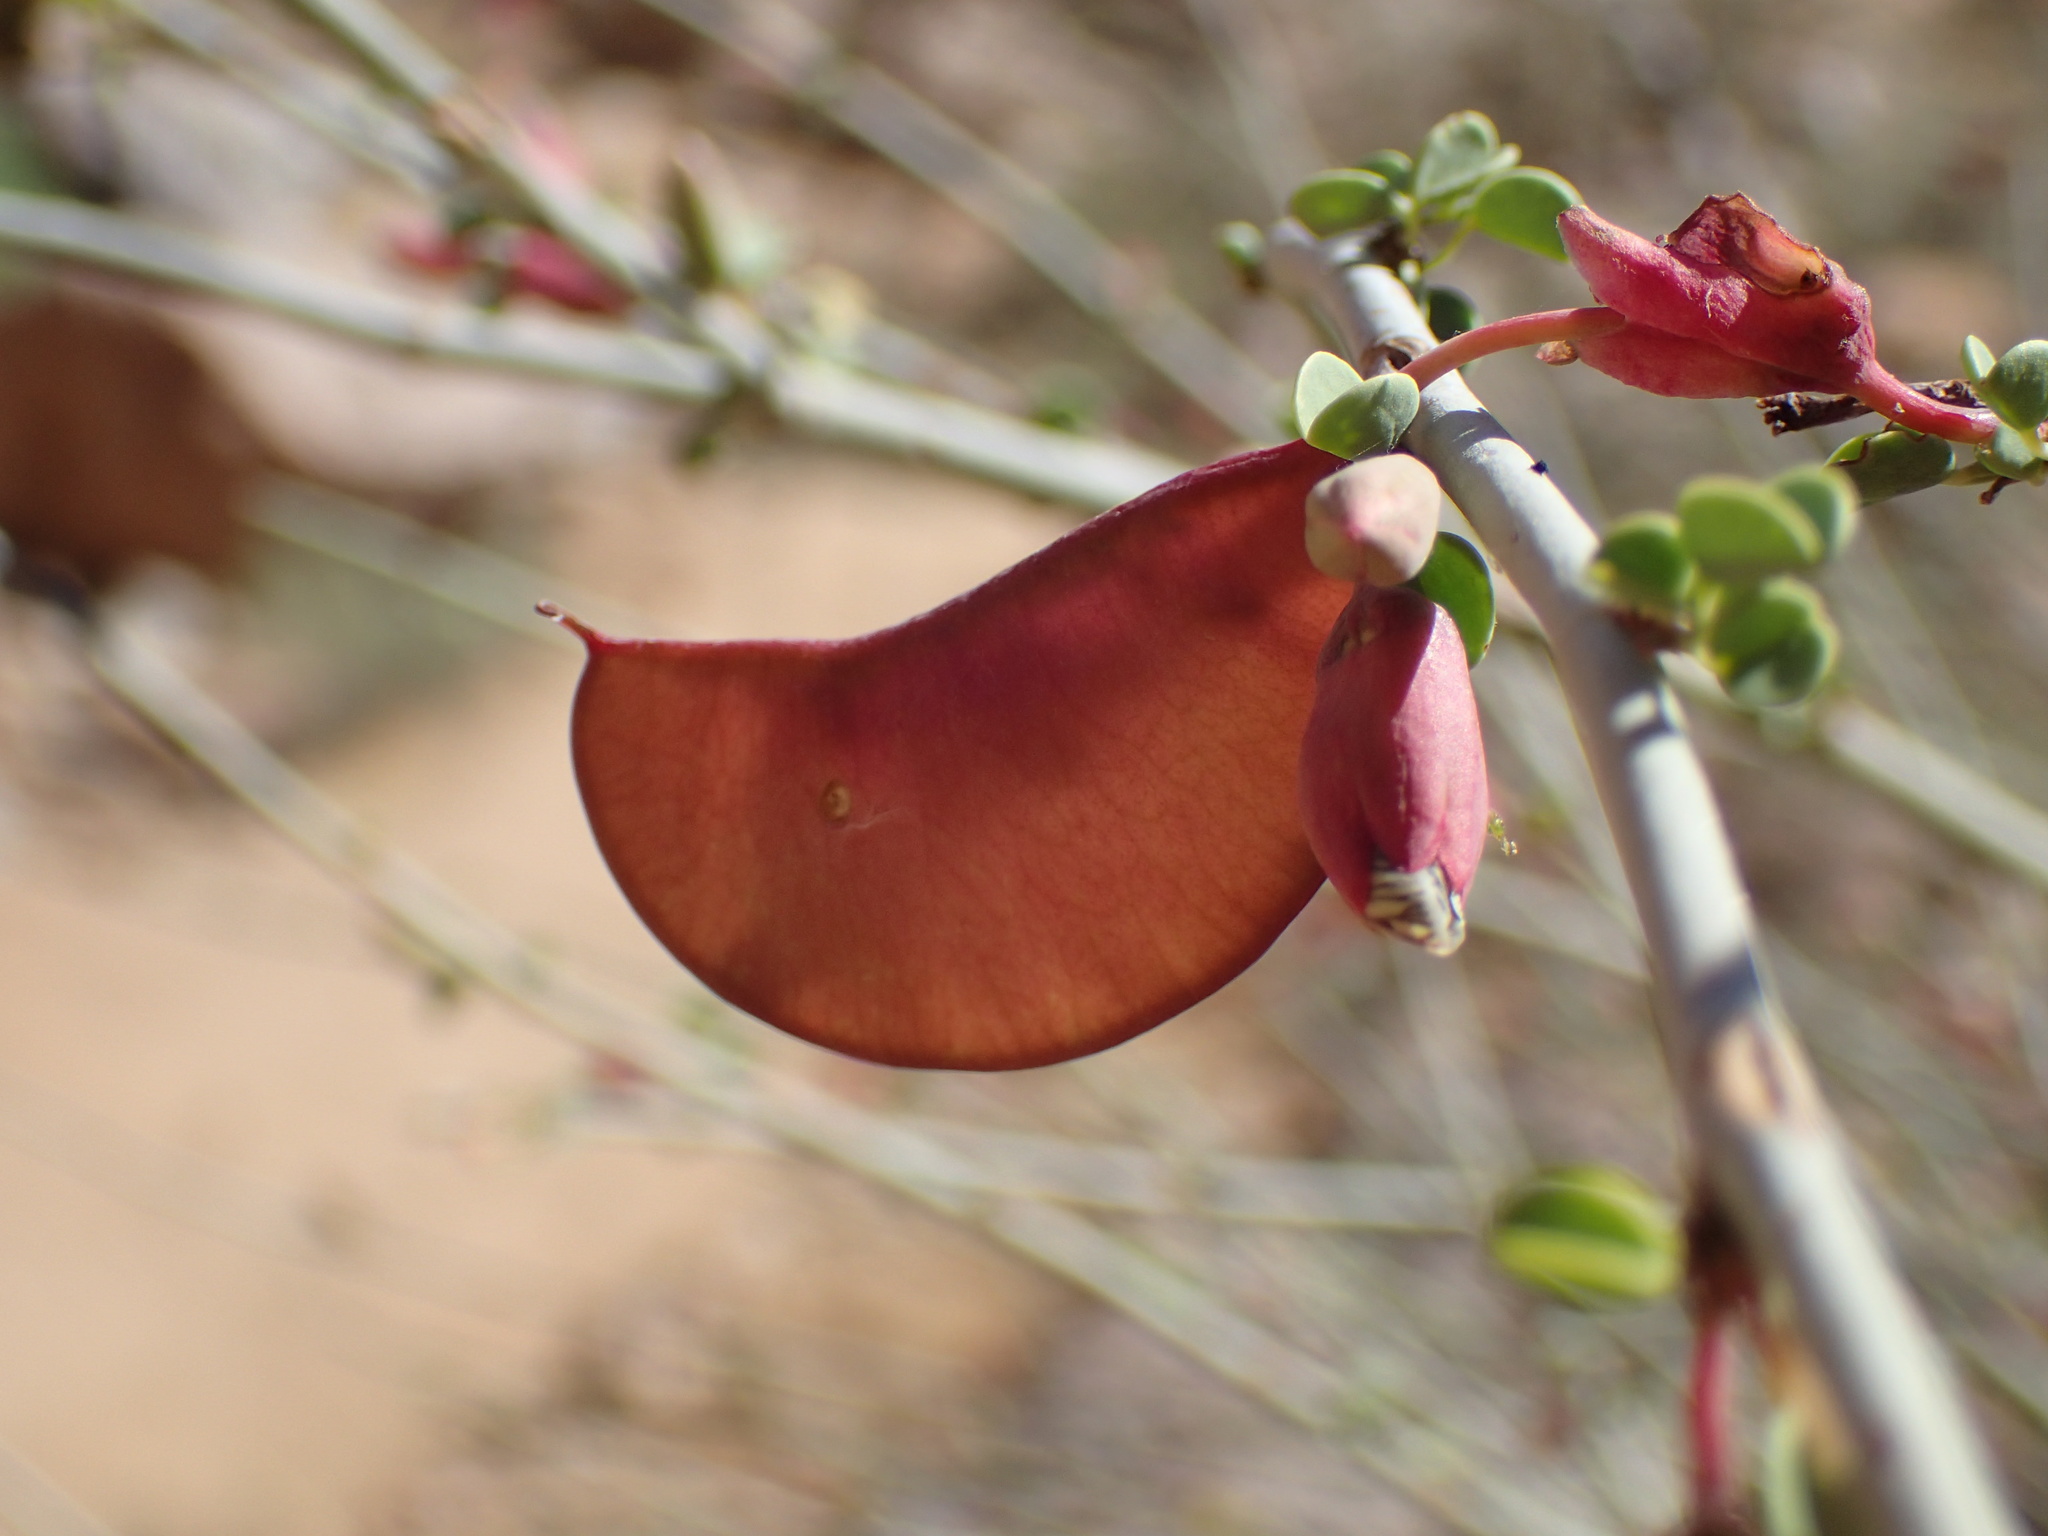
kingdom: Plantae
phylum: Tracheophyta
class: Magnoliopsida
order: Fabales
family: Fabaceae
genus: Adenolobus
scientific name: Adenolobus garipensis
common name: Butterfly-leaf
